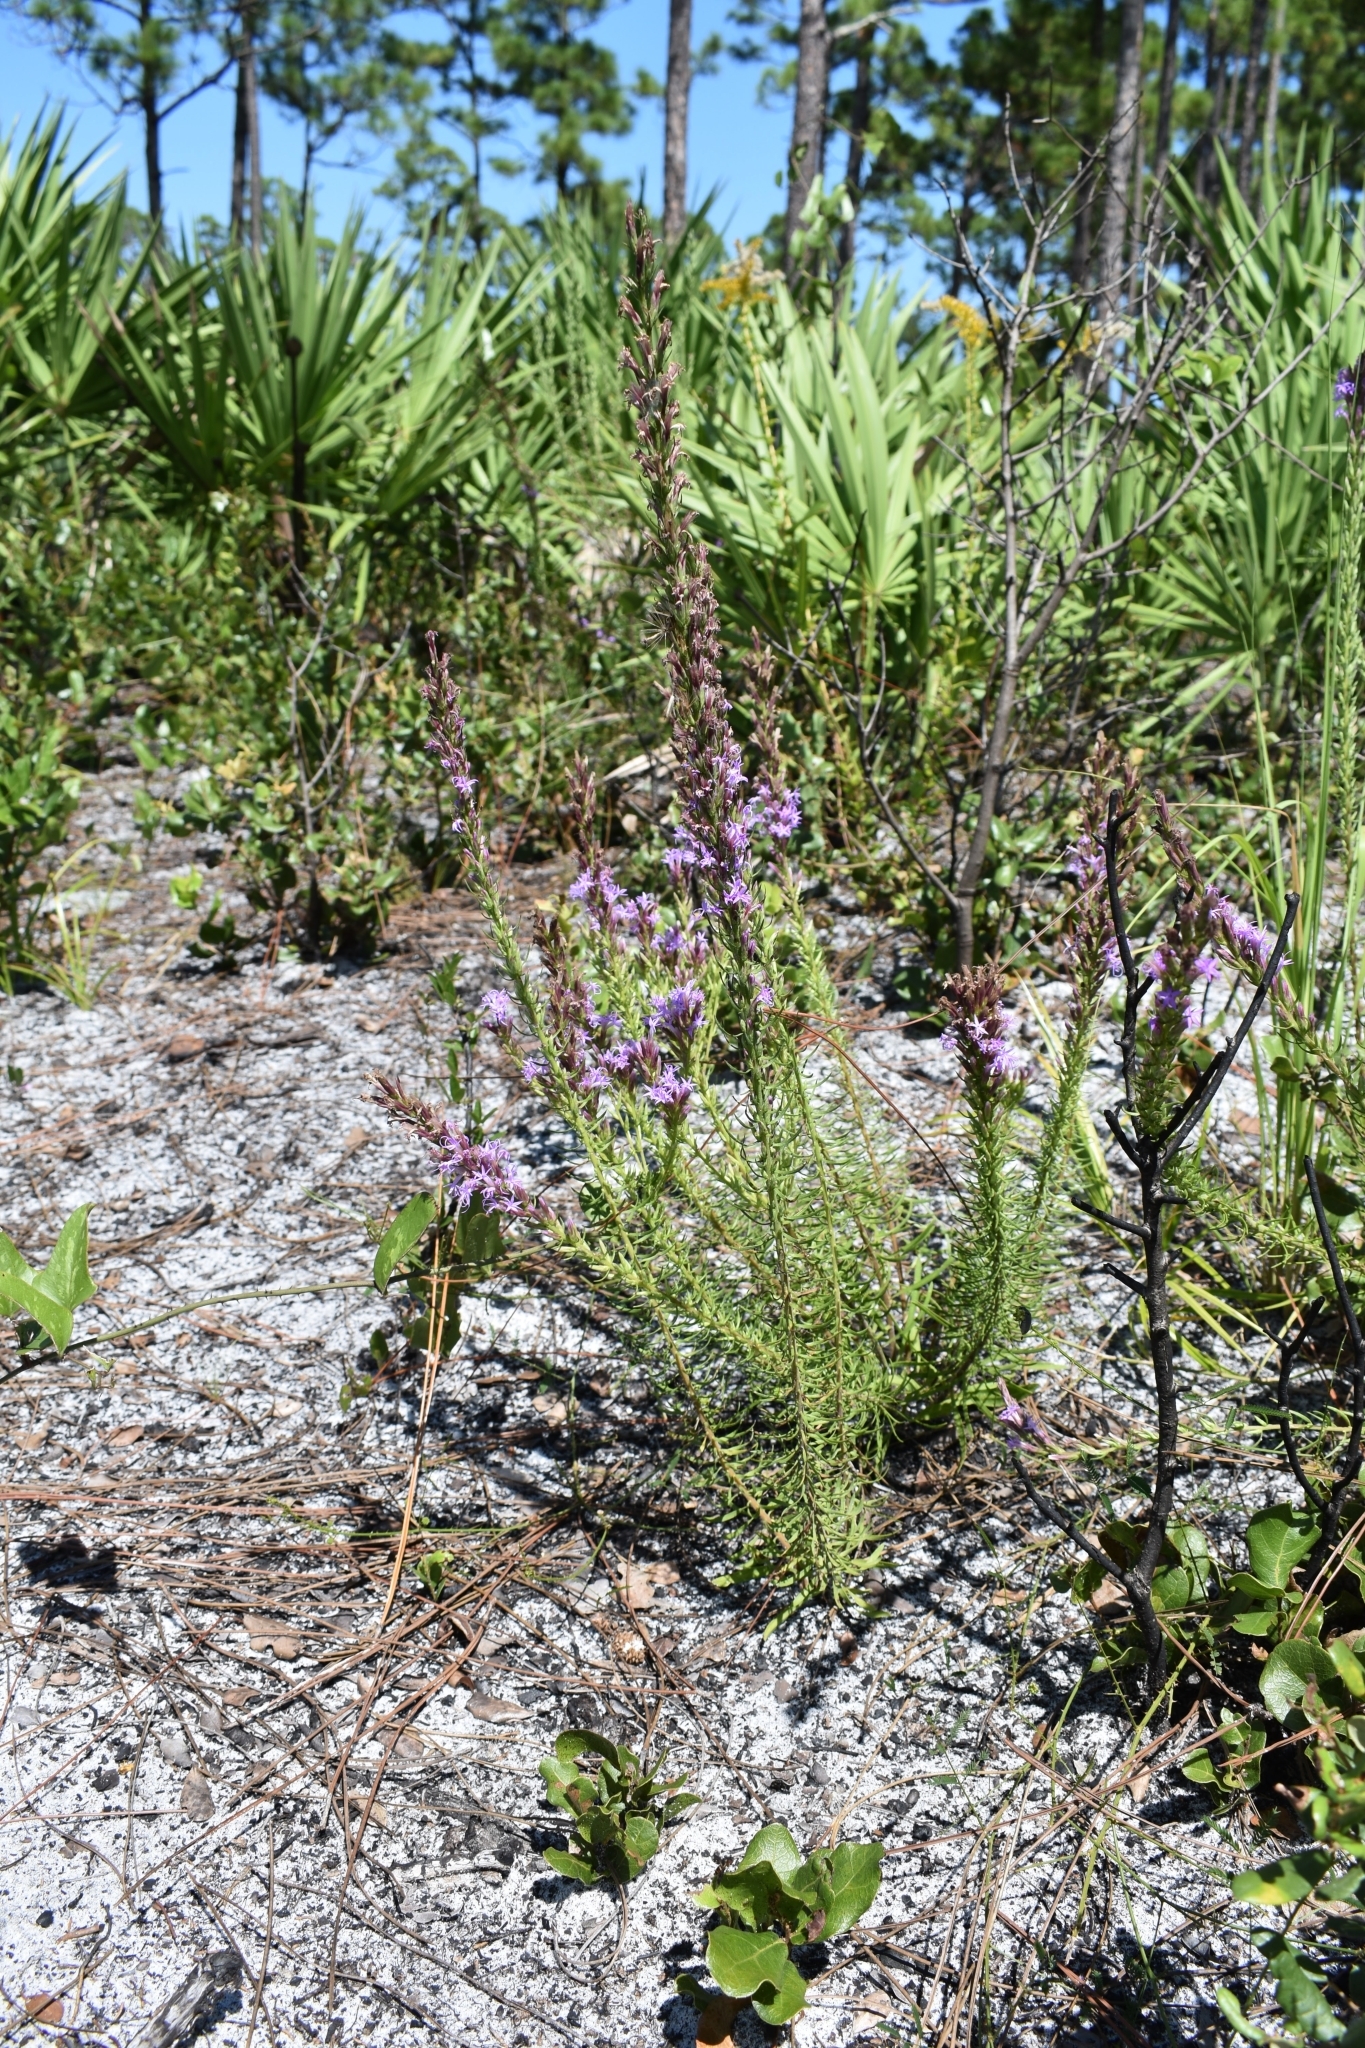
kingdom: Plantae
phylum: Tracheophyta
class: Magnoliopsida
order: Asterales
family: Asteraceae
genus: Liatris
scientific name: Liatris chapmanii
